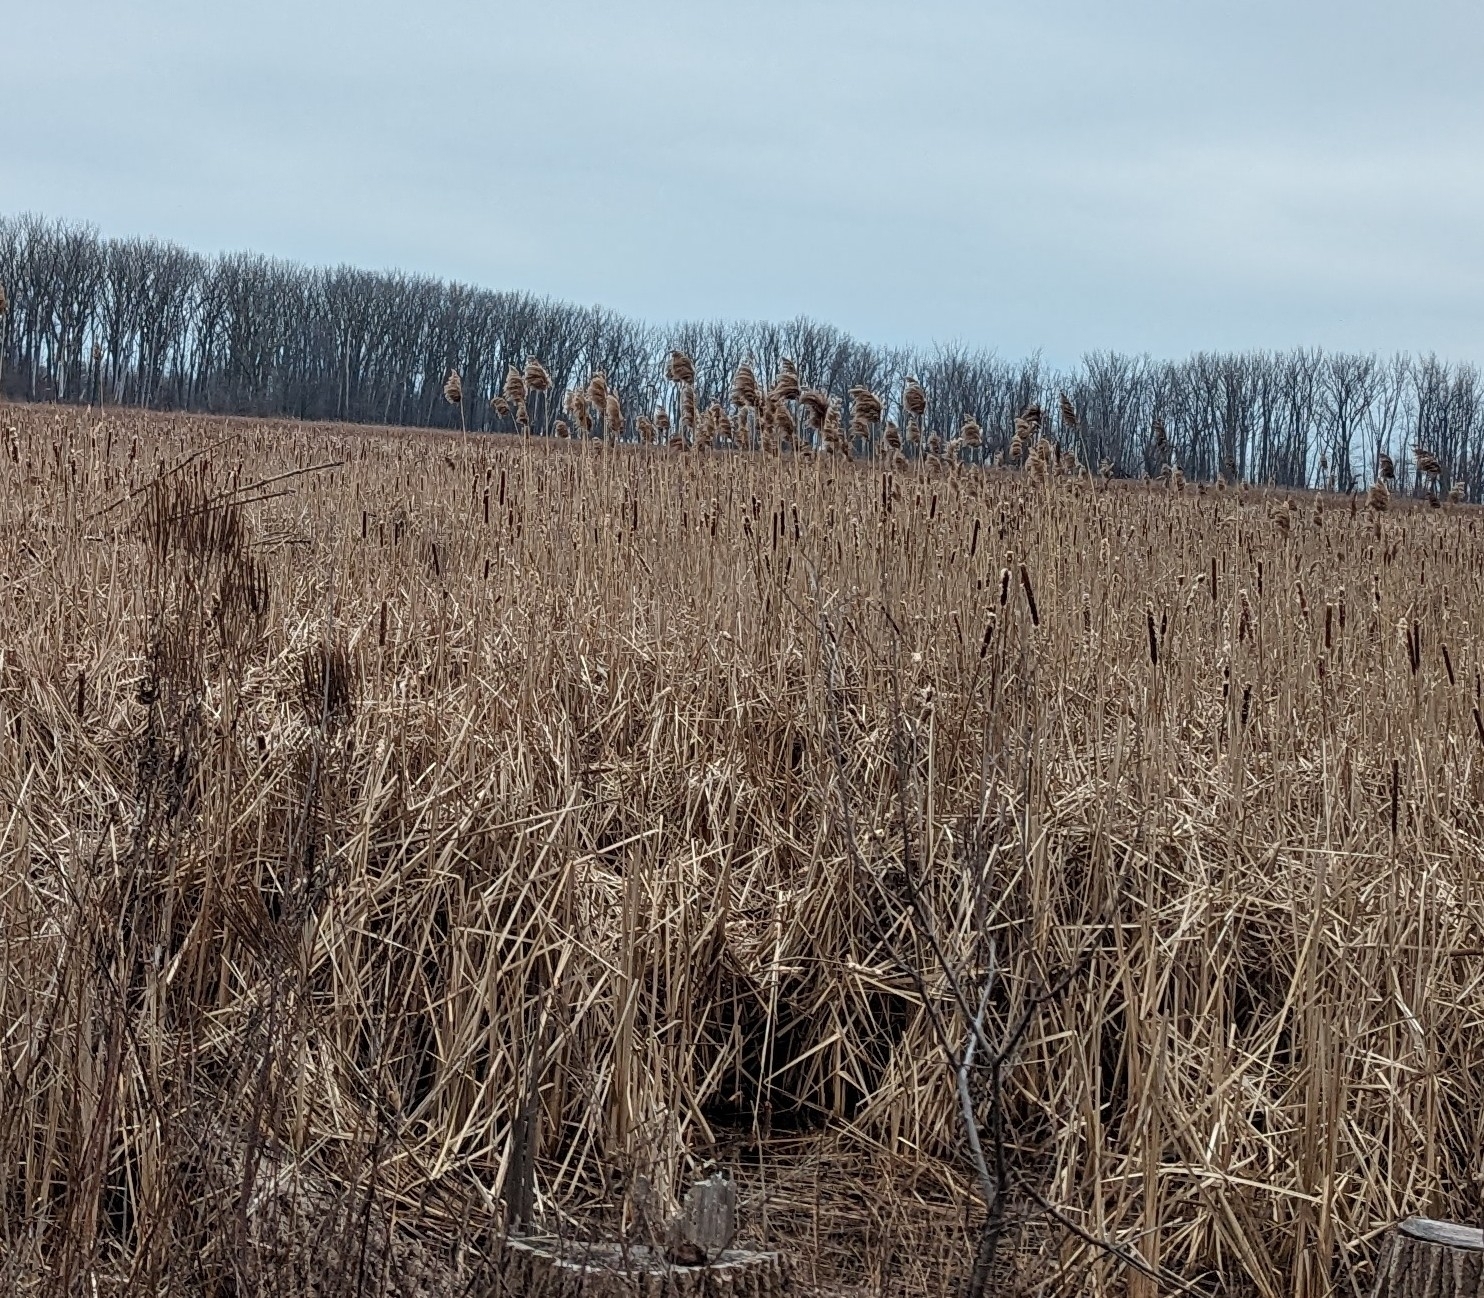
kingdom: Plantae
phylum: Tracheophyta
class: Liliopsida
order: Poales
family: Poaceae
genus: Phragmites
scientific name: Phragmites australis
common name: Common reed
